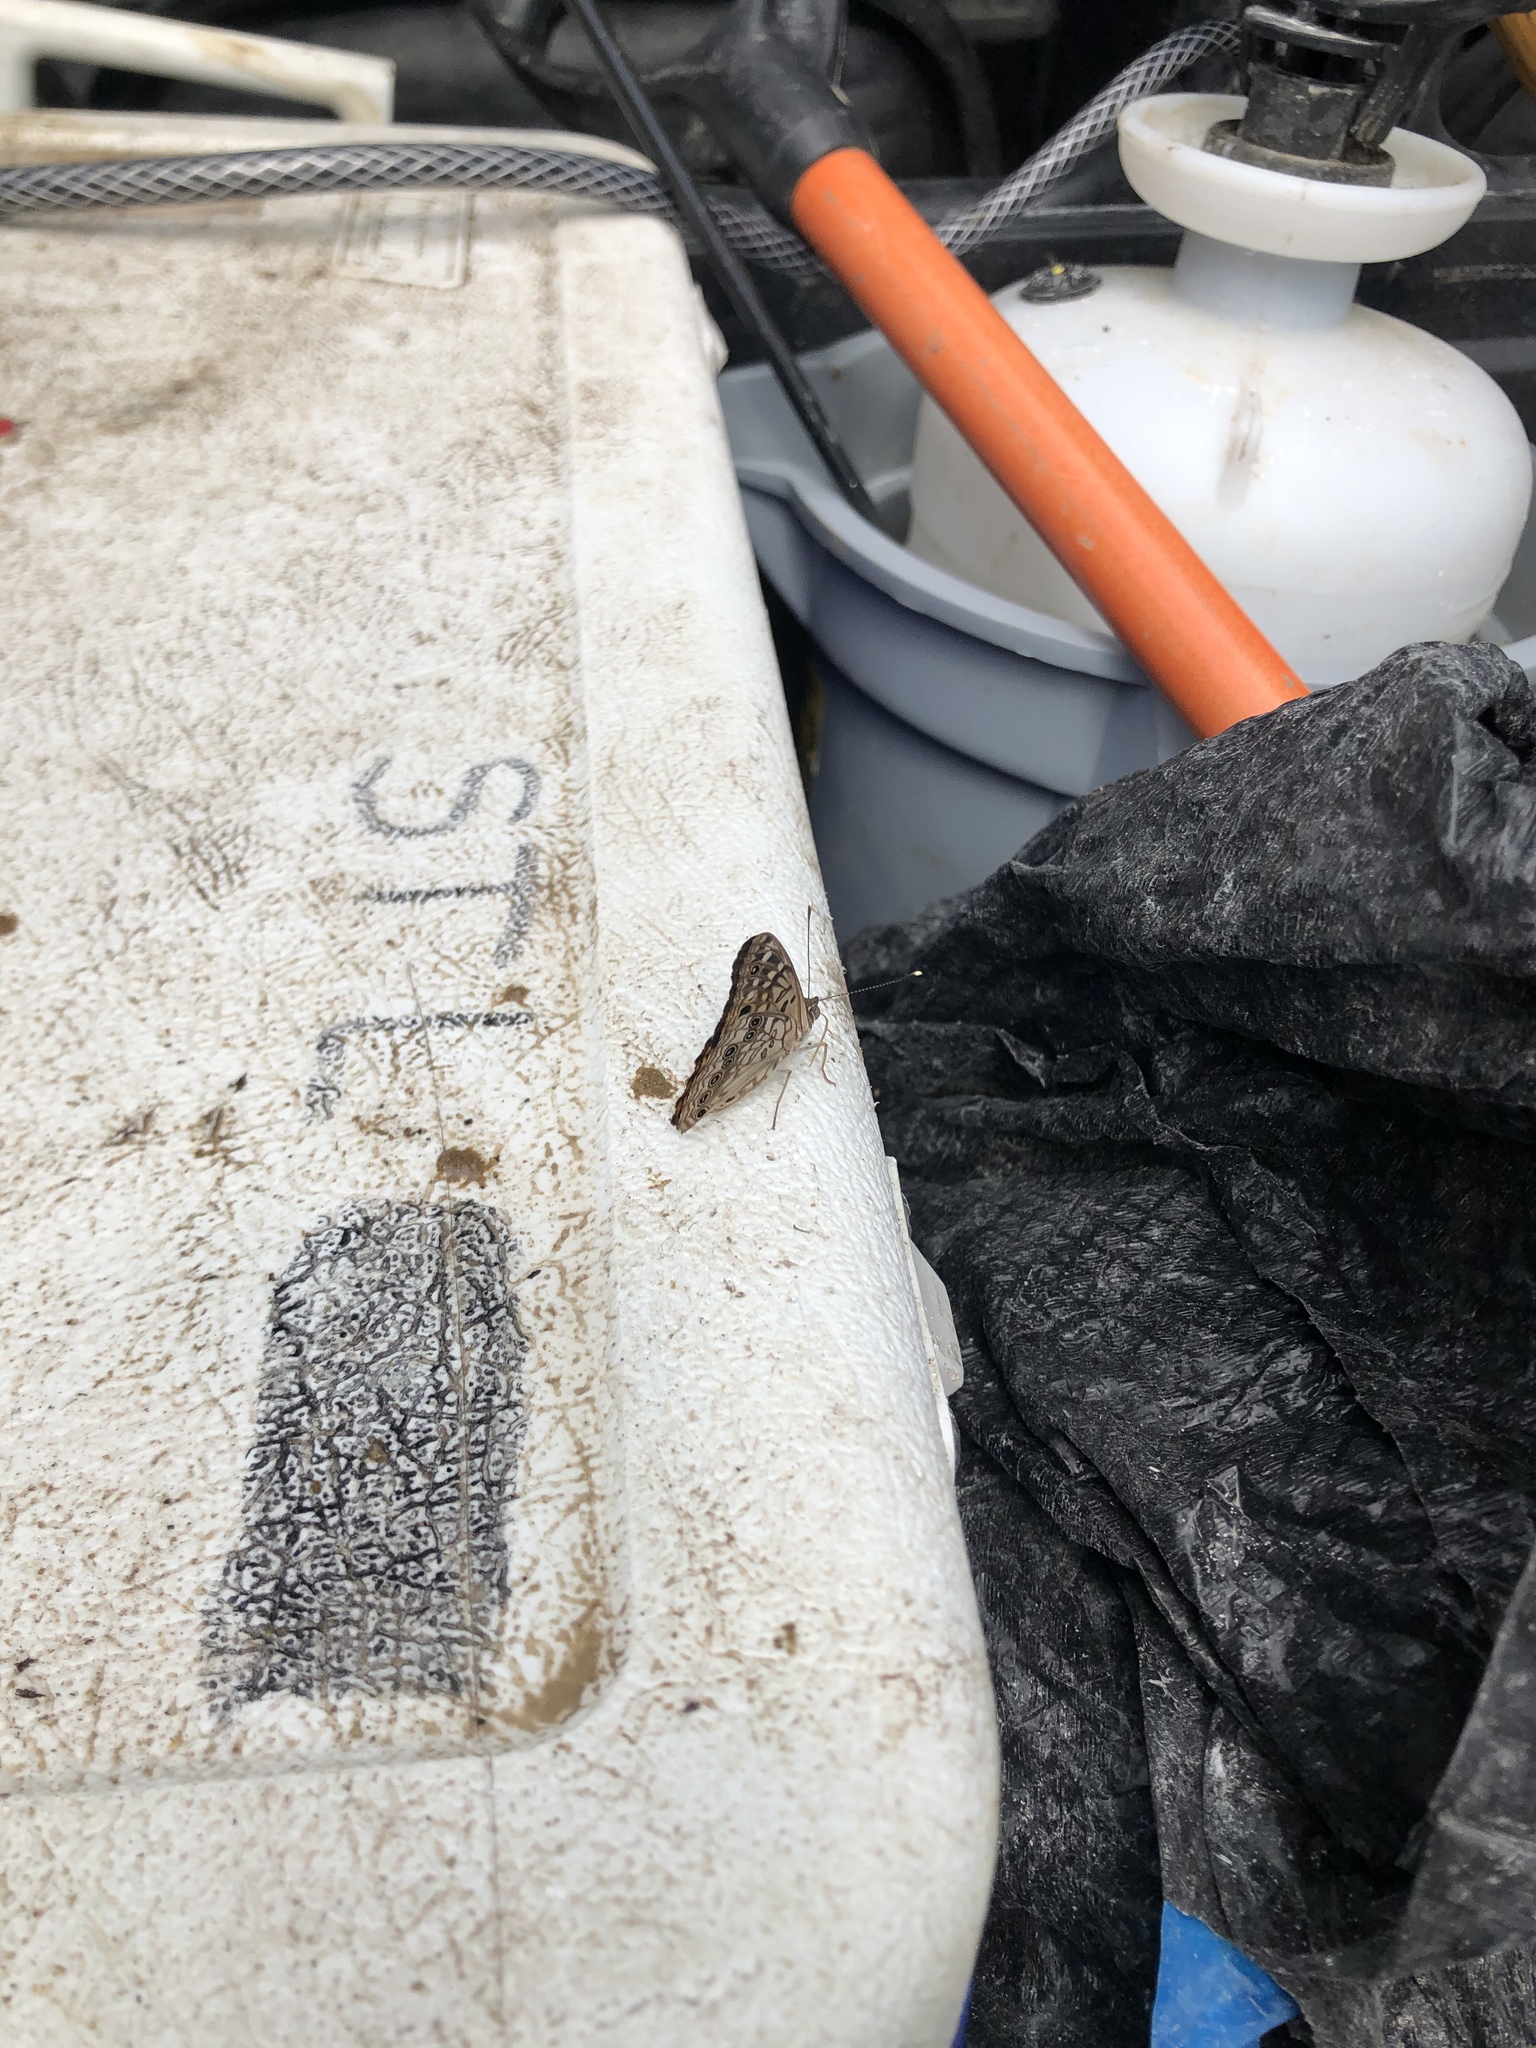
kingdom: Animalia
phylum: Arthropoda
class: Insecta
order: Lepidoptera
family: Nymphalidae
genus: Asterocampa
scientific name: Asterocampa celtis
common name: Hackberry emperor
